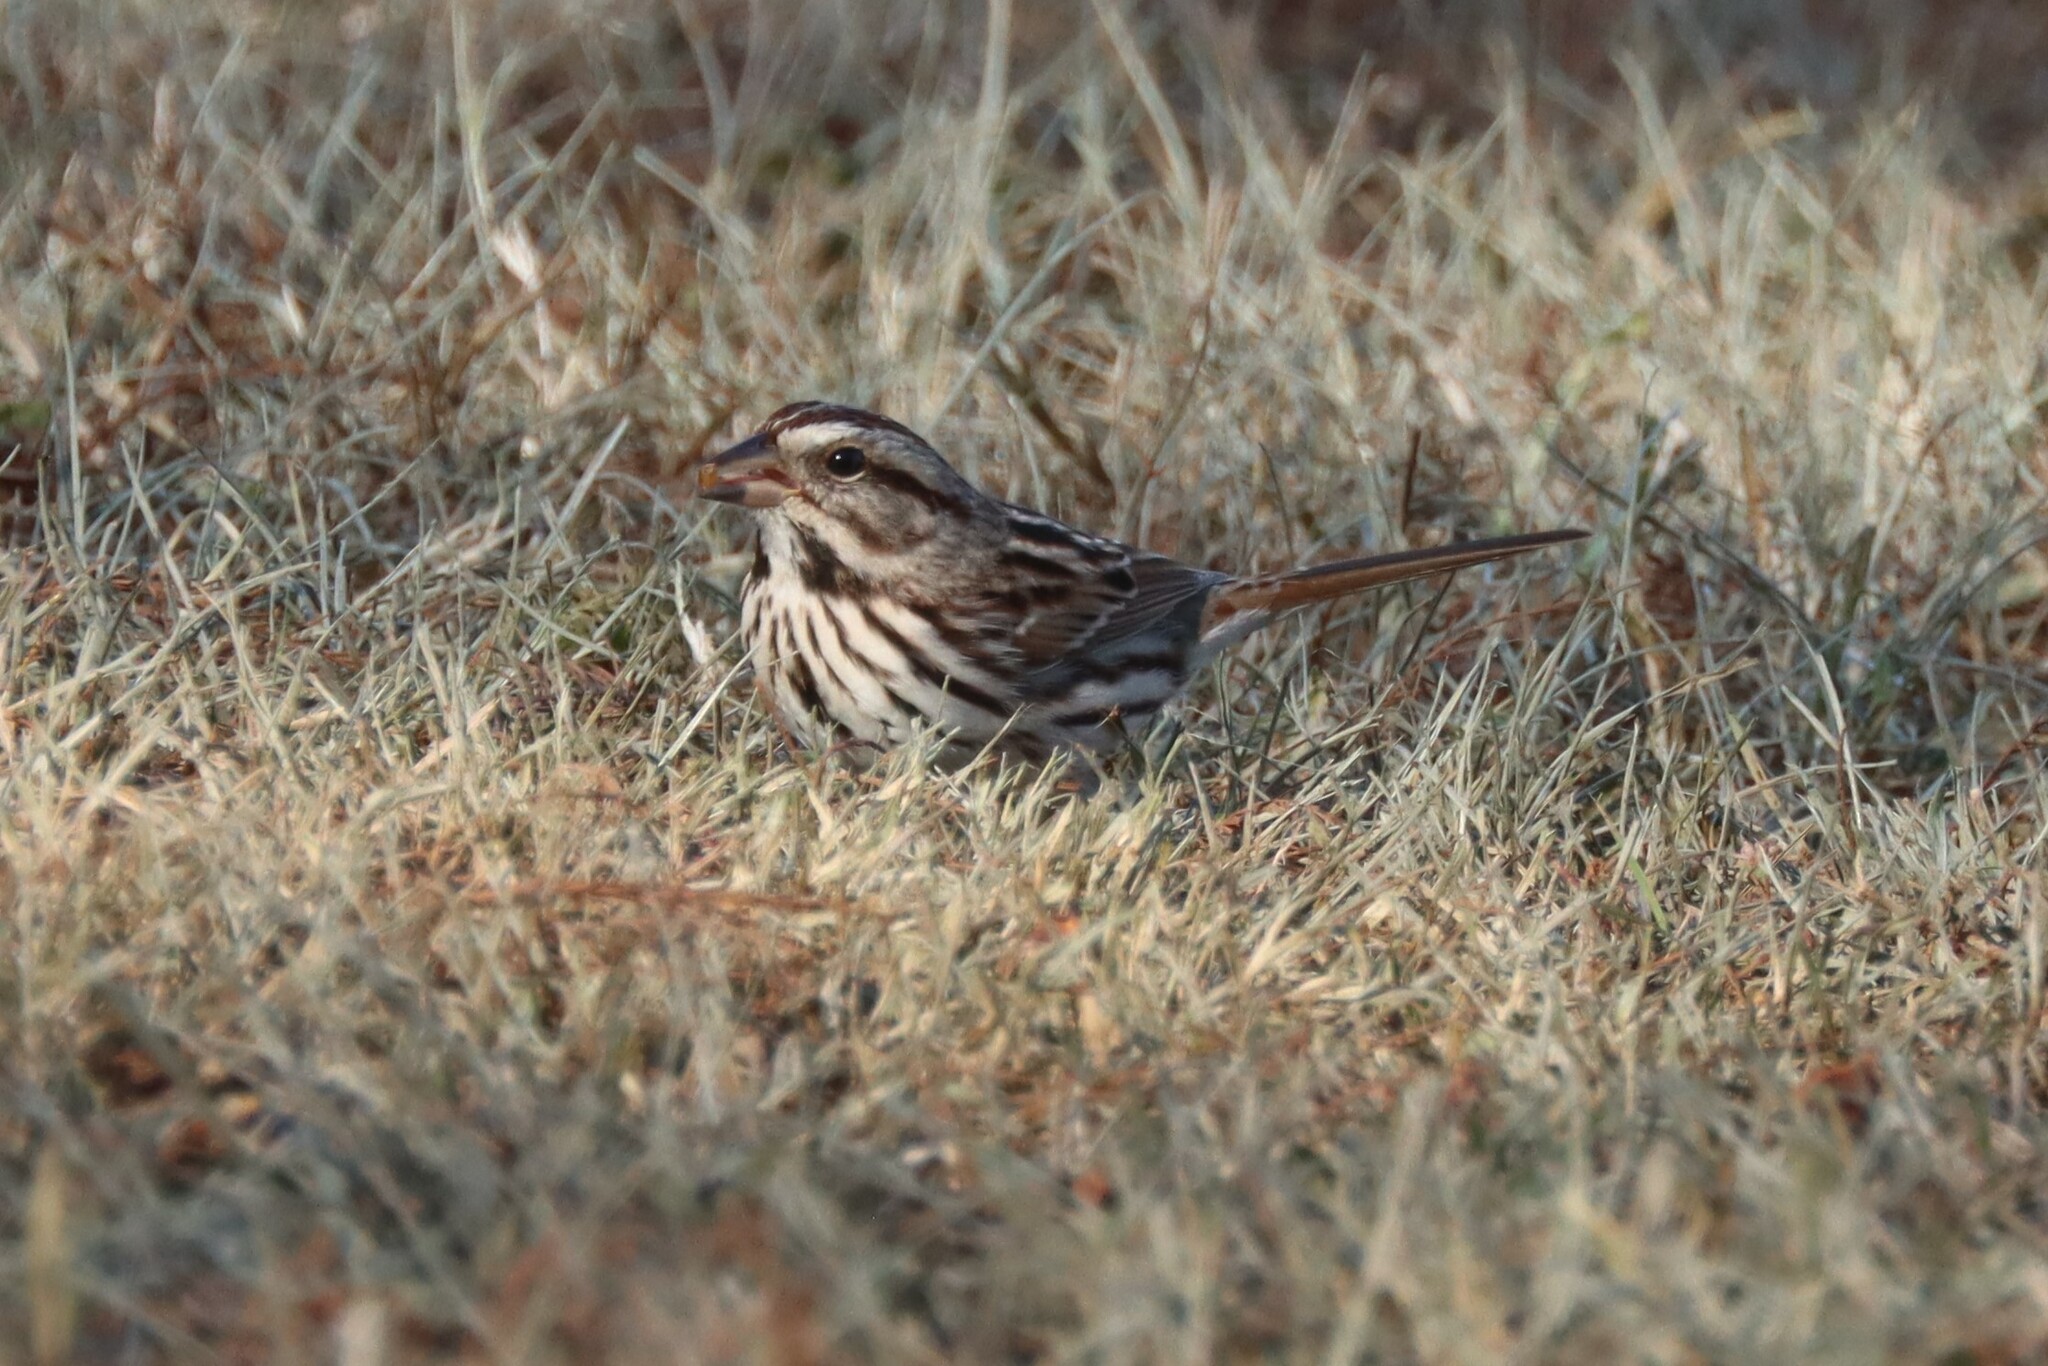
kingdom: Animalia
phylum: Chordata
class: Aves
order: Passeriformes
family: Passerellidae
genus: Melospiza
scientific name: Melospiza melodia
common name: Song sparrow
